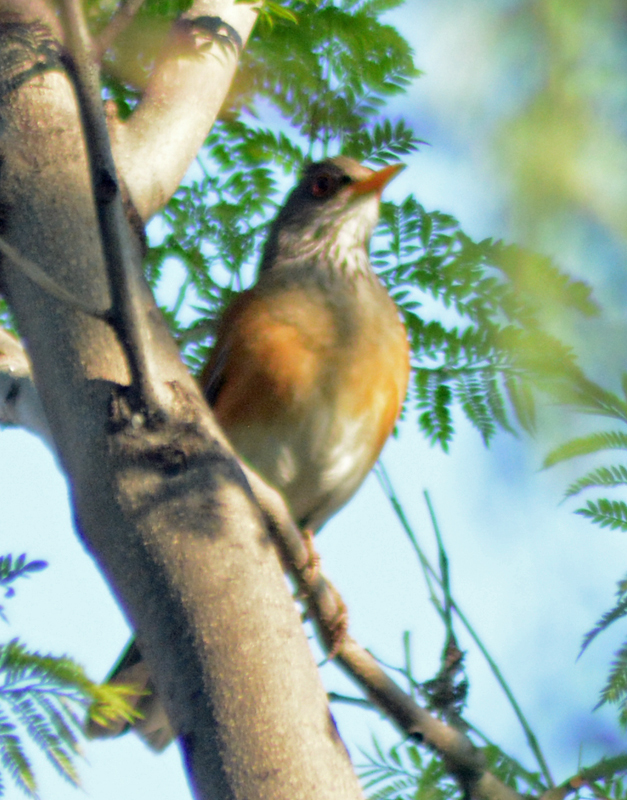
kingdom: Animalia
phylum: Chordata
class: Aves
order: Passeriformes
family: Turdidae
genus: Turdus
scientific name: Turdus rufopalliatus
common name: Rufous-backed robin
